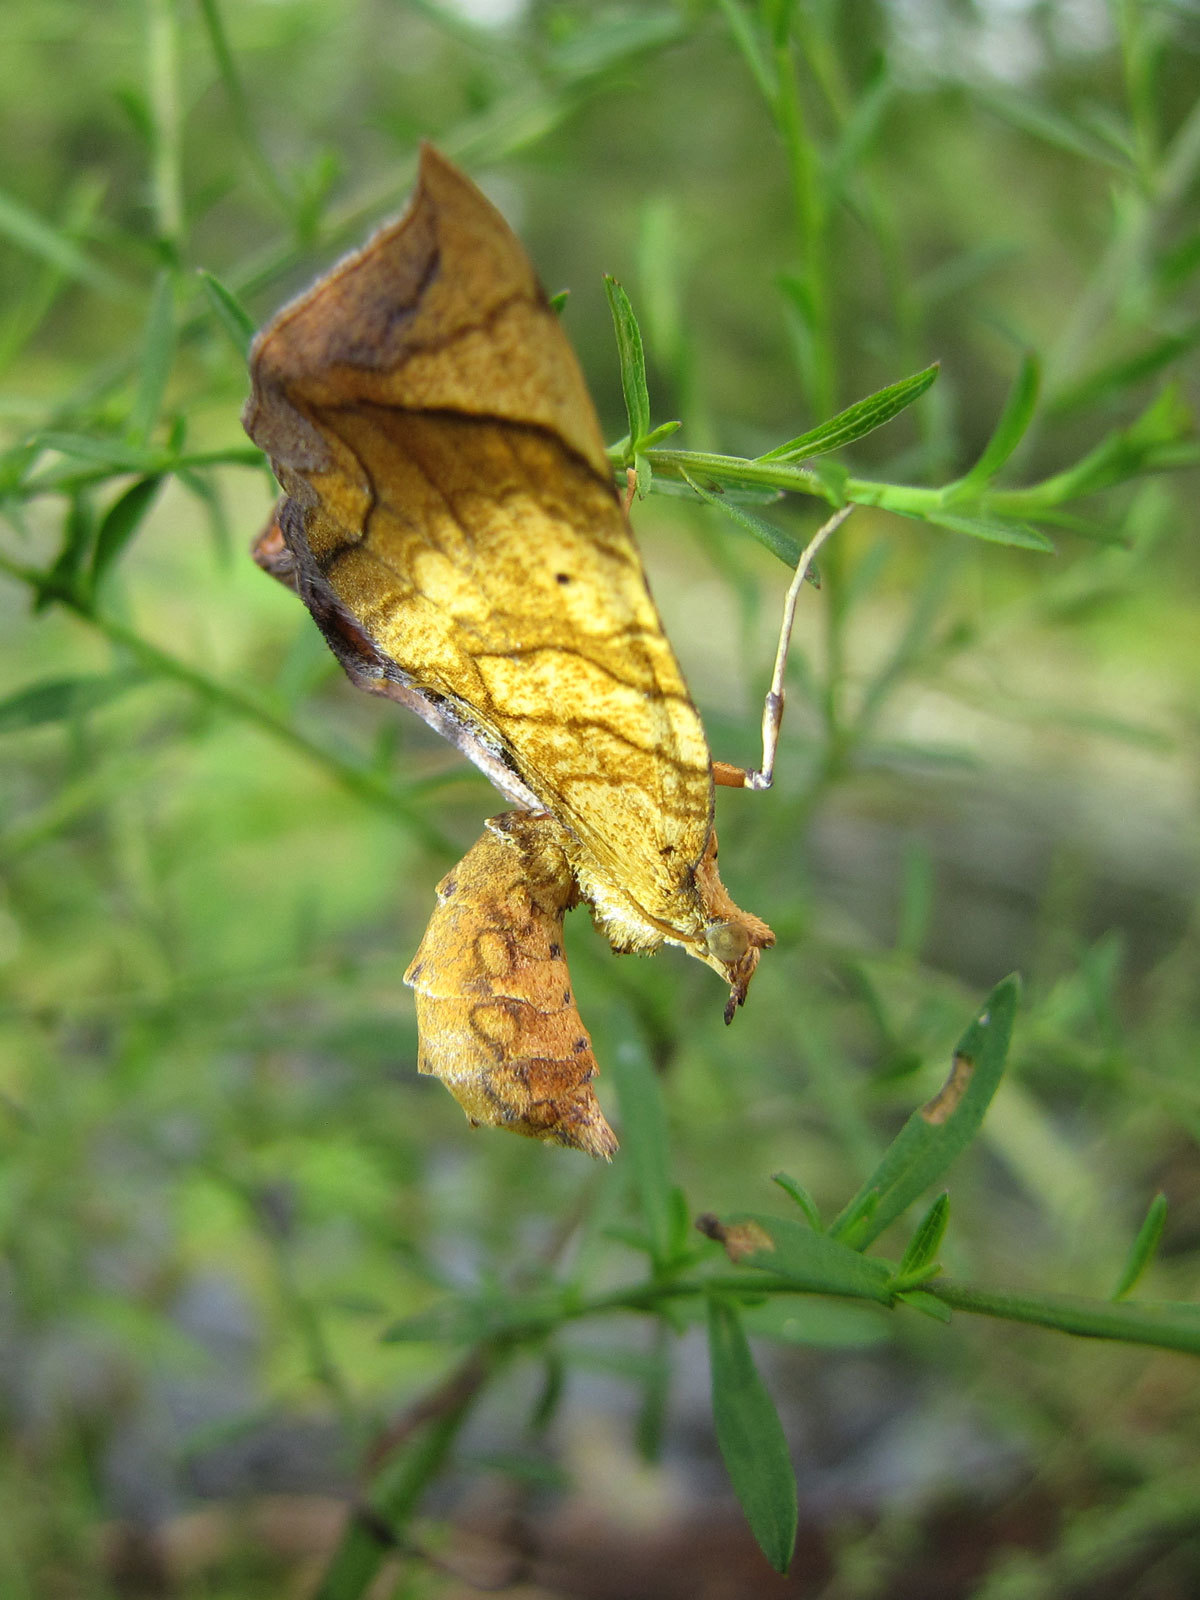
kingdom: Animalia
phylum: Arthropoda
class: Insecta
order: Lepidoptera
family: Geometridae
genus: Eulithis
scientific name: Eulithis gracilineata
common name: Greater grapevine looper moth
